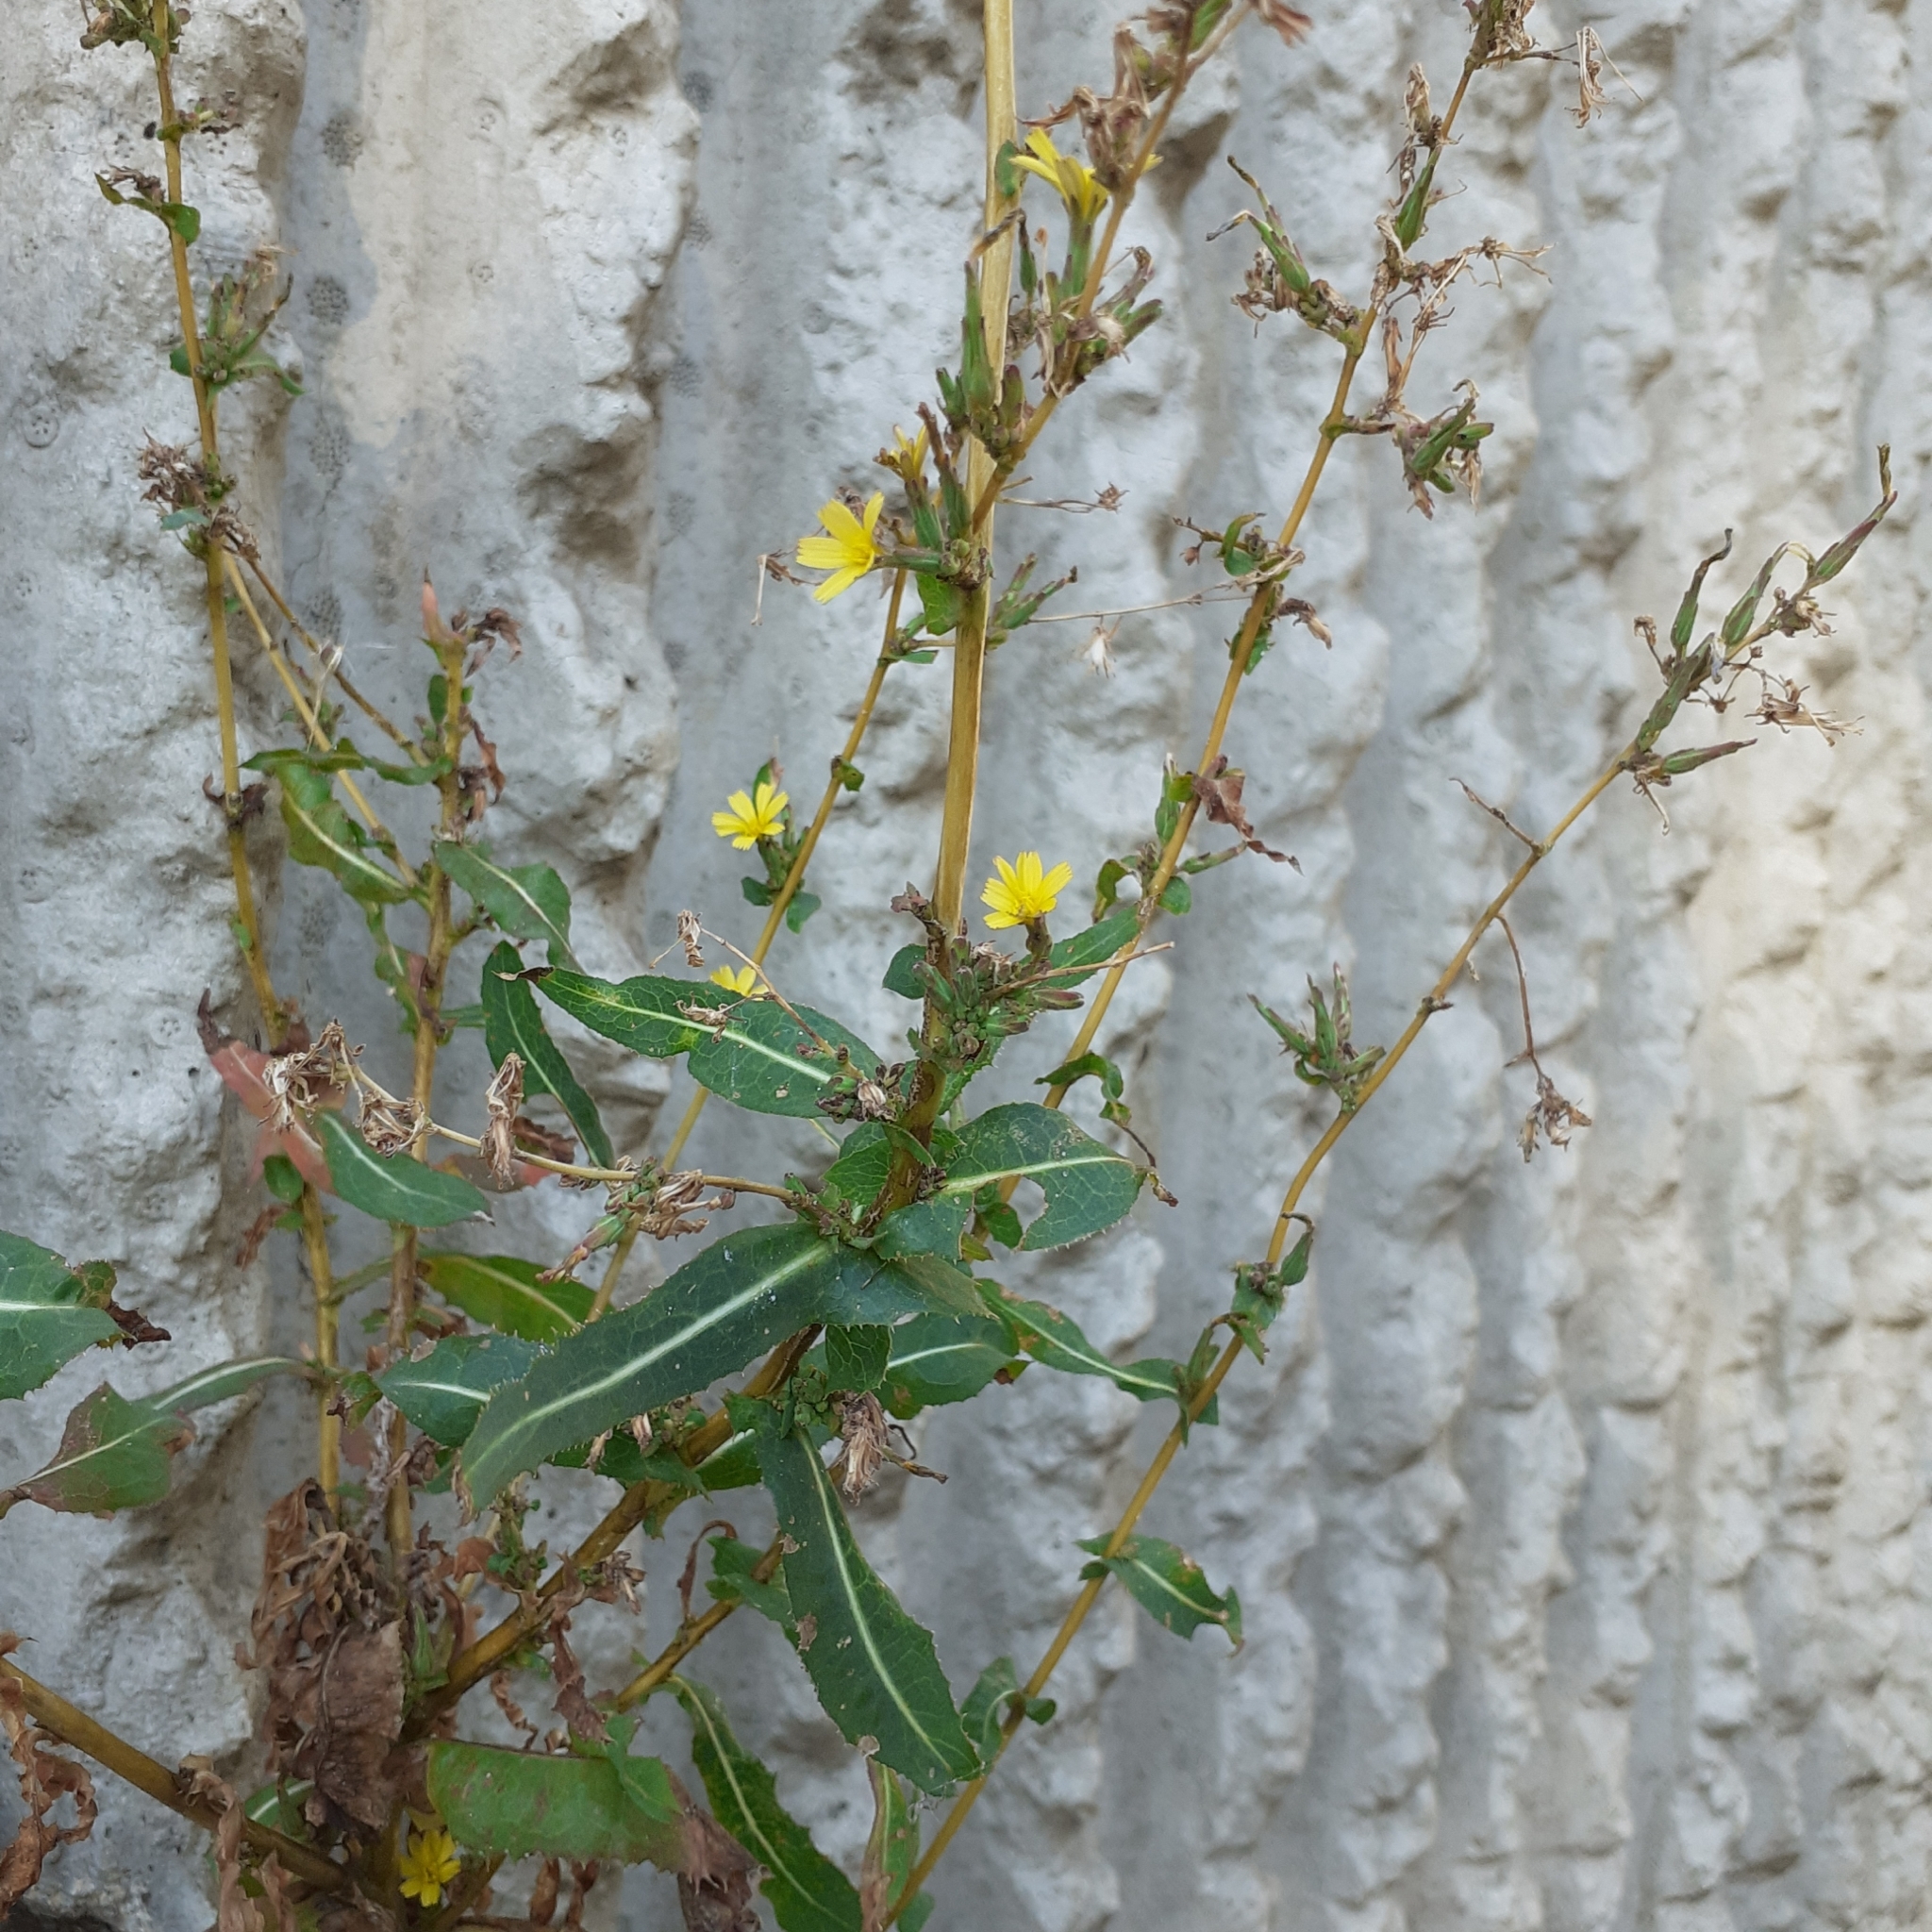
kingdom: Plantae
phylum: Tracheophyta
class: Magnoliopsida
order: Asterales
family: Asteraceae
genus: Lactuca
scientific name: Lactuca serriola
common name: Prickly lettuce
